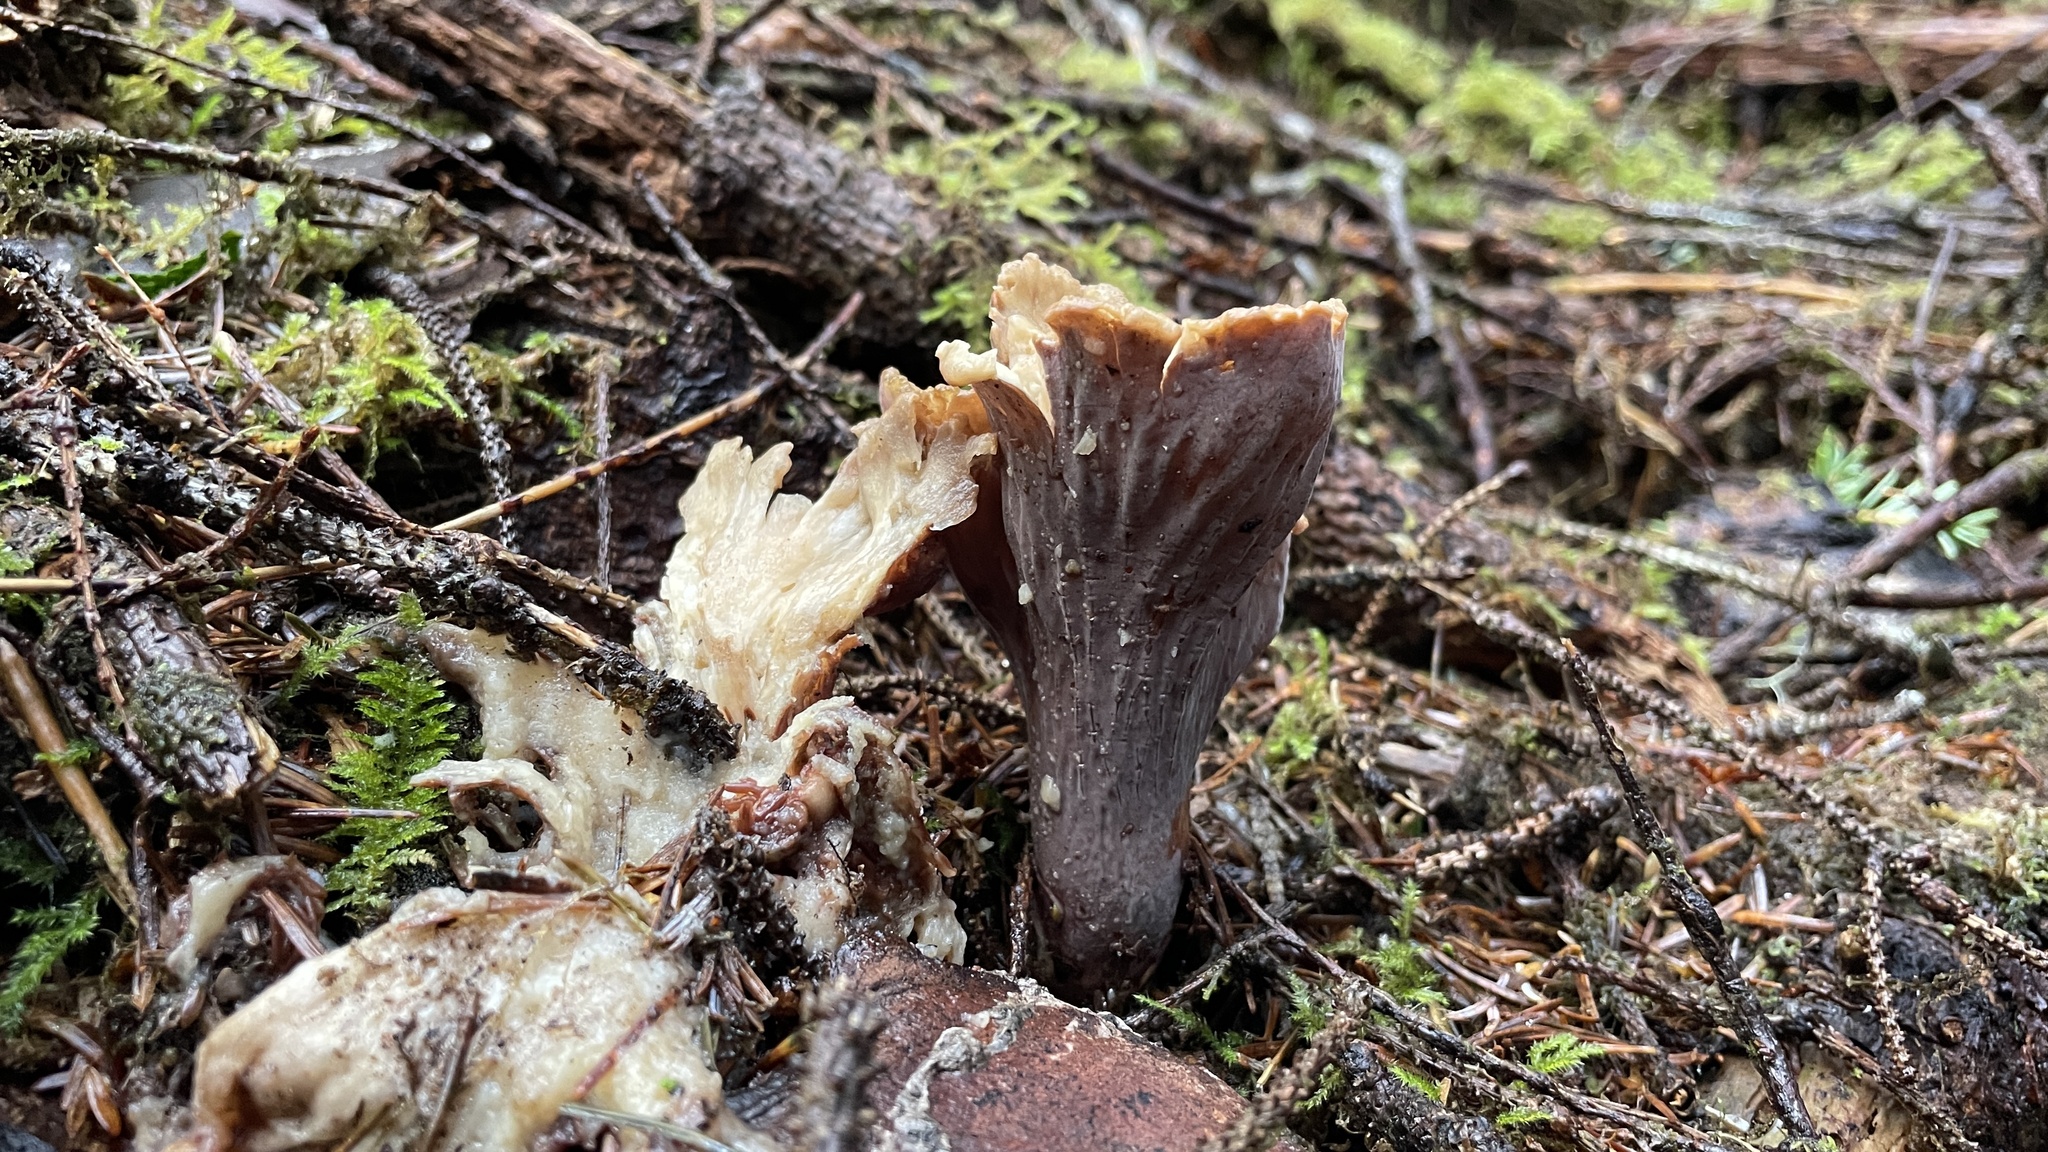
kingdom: Fungi
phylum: Basidiomycota
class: Agaricomycetes
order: Gomphales
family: Gomphaceae
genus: Gomphus
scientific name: Gomphus clavatus
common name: Pig's ear
